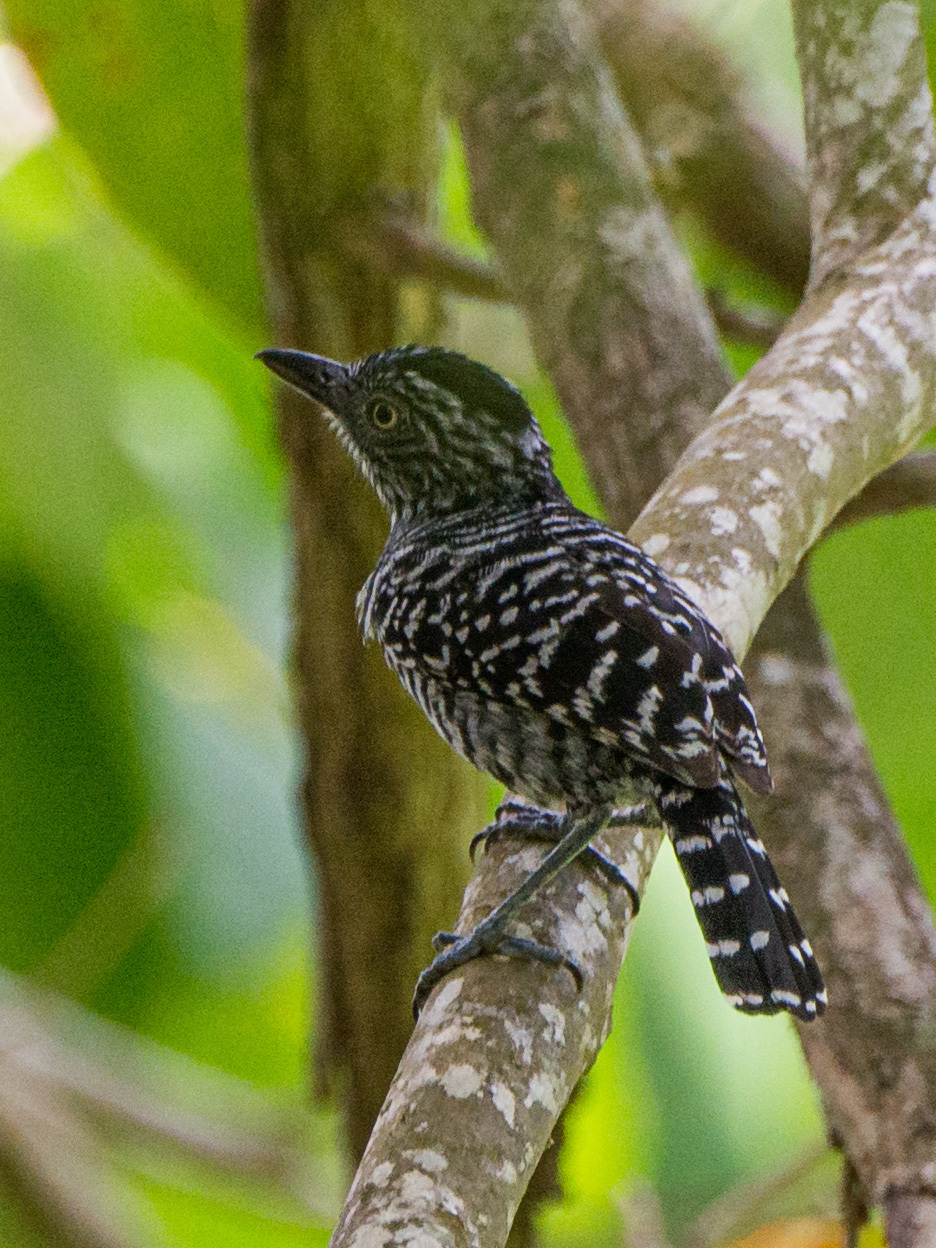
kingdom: Animalia
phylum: Chordata
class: Aves
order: Passeriformes
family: Thamnophilidae
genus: Thamnophilus
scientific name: Thamnophilus doliatus
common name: Barred antshrike
